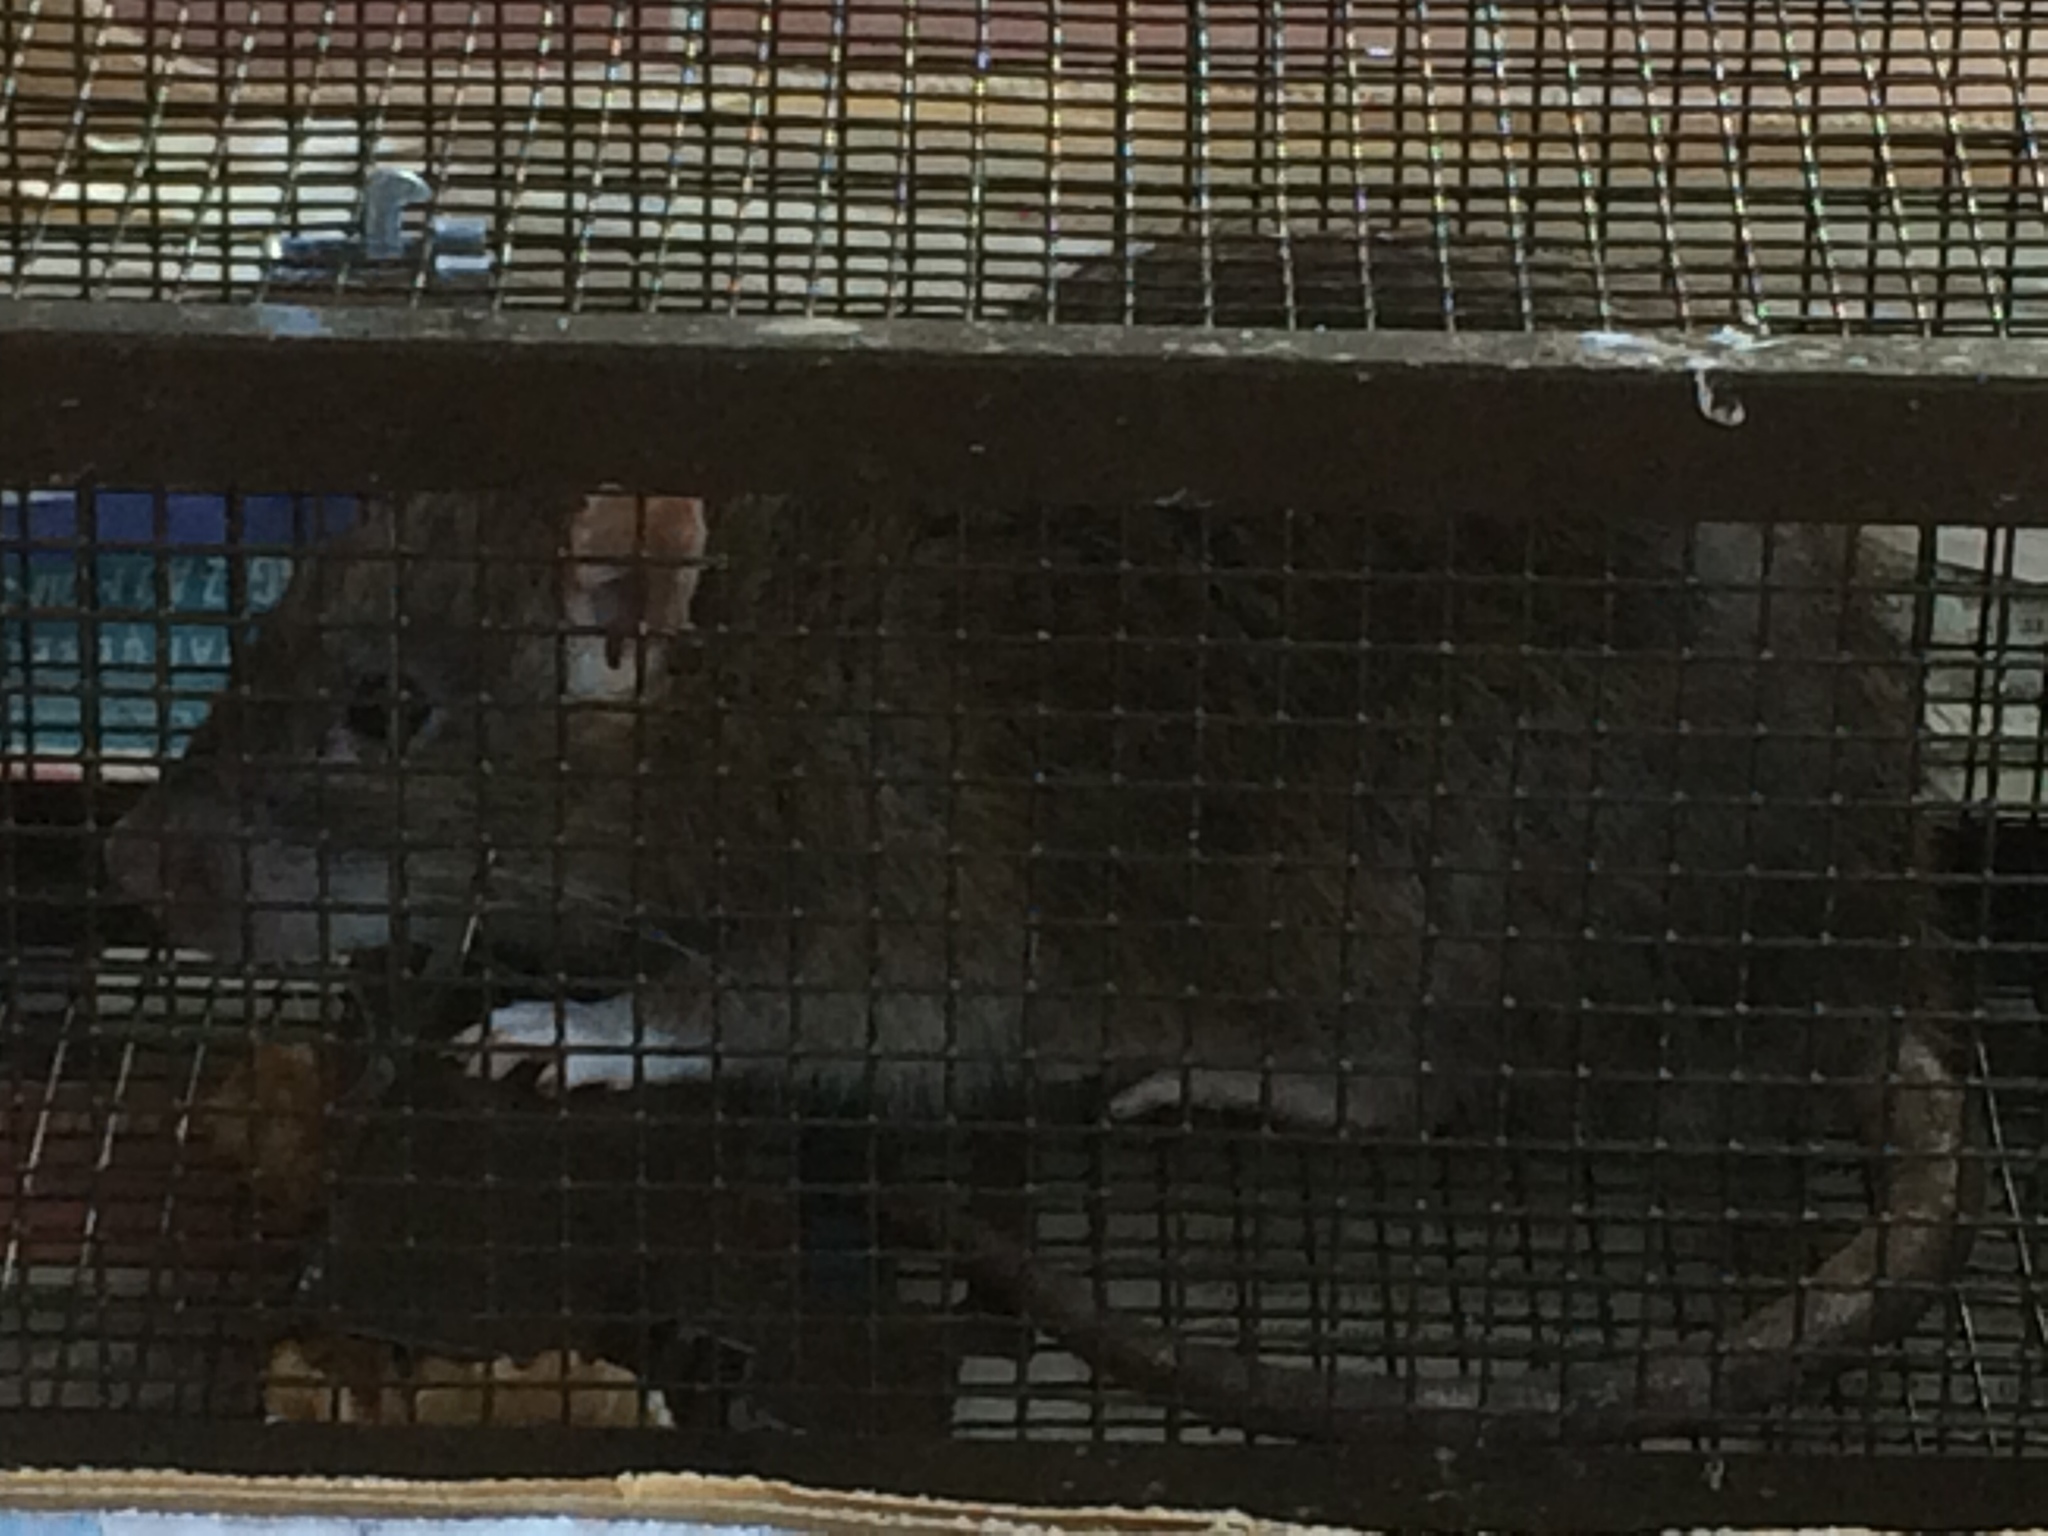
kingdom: Animalia
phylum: Chordata
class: Mammalia
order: Rodentia
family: Muridae
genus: Rattus
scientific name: Rattus norvegicus
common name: Brown rat
